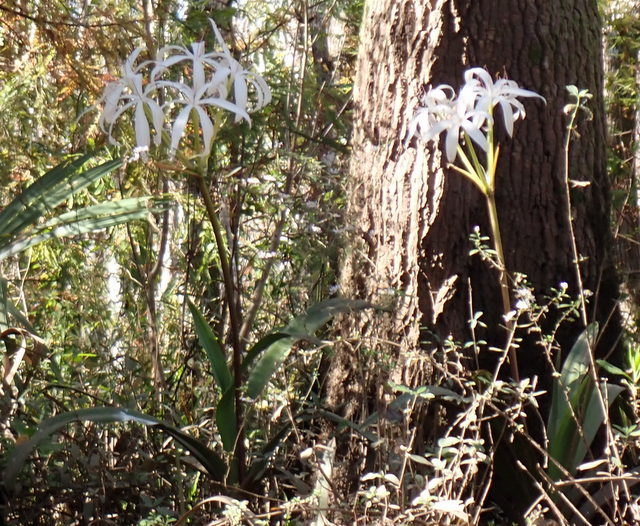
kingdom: Plantae
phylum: Tracheophyta
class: Liliopsida
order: Asparagales
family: Amaryllidaceae
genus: Crinum
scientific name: Crinum americanum
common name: Florida swamp-lily
